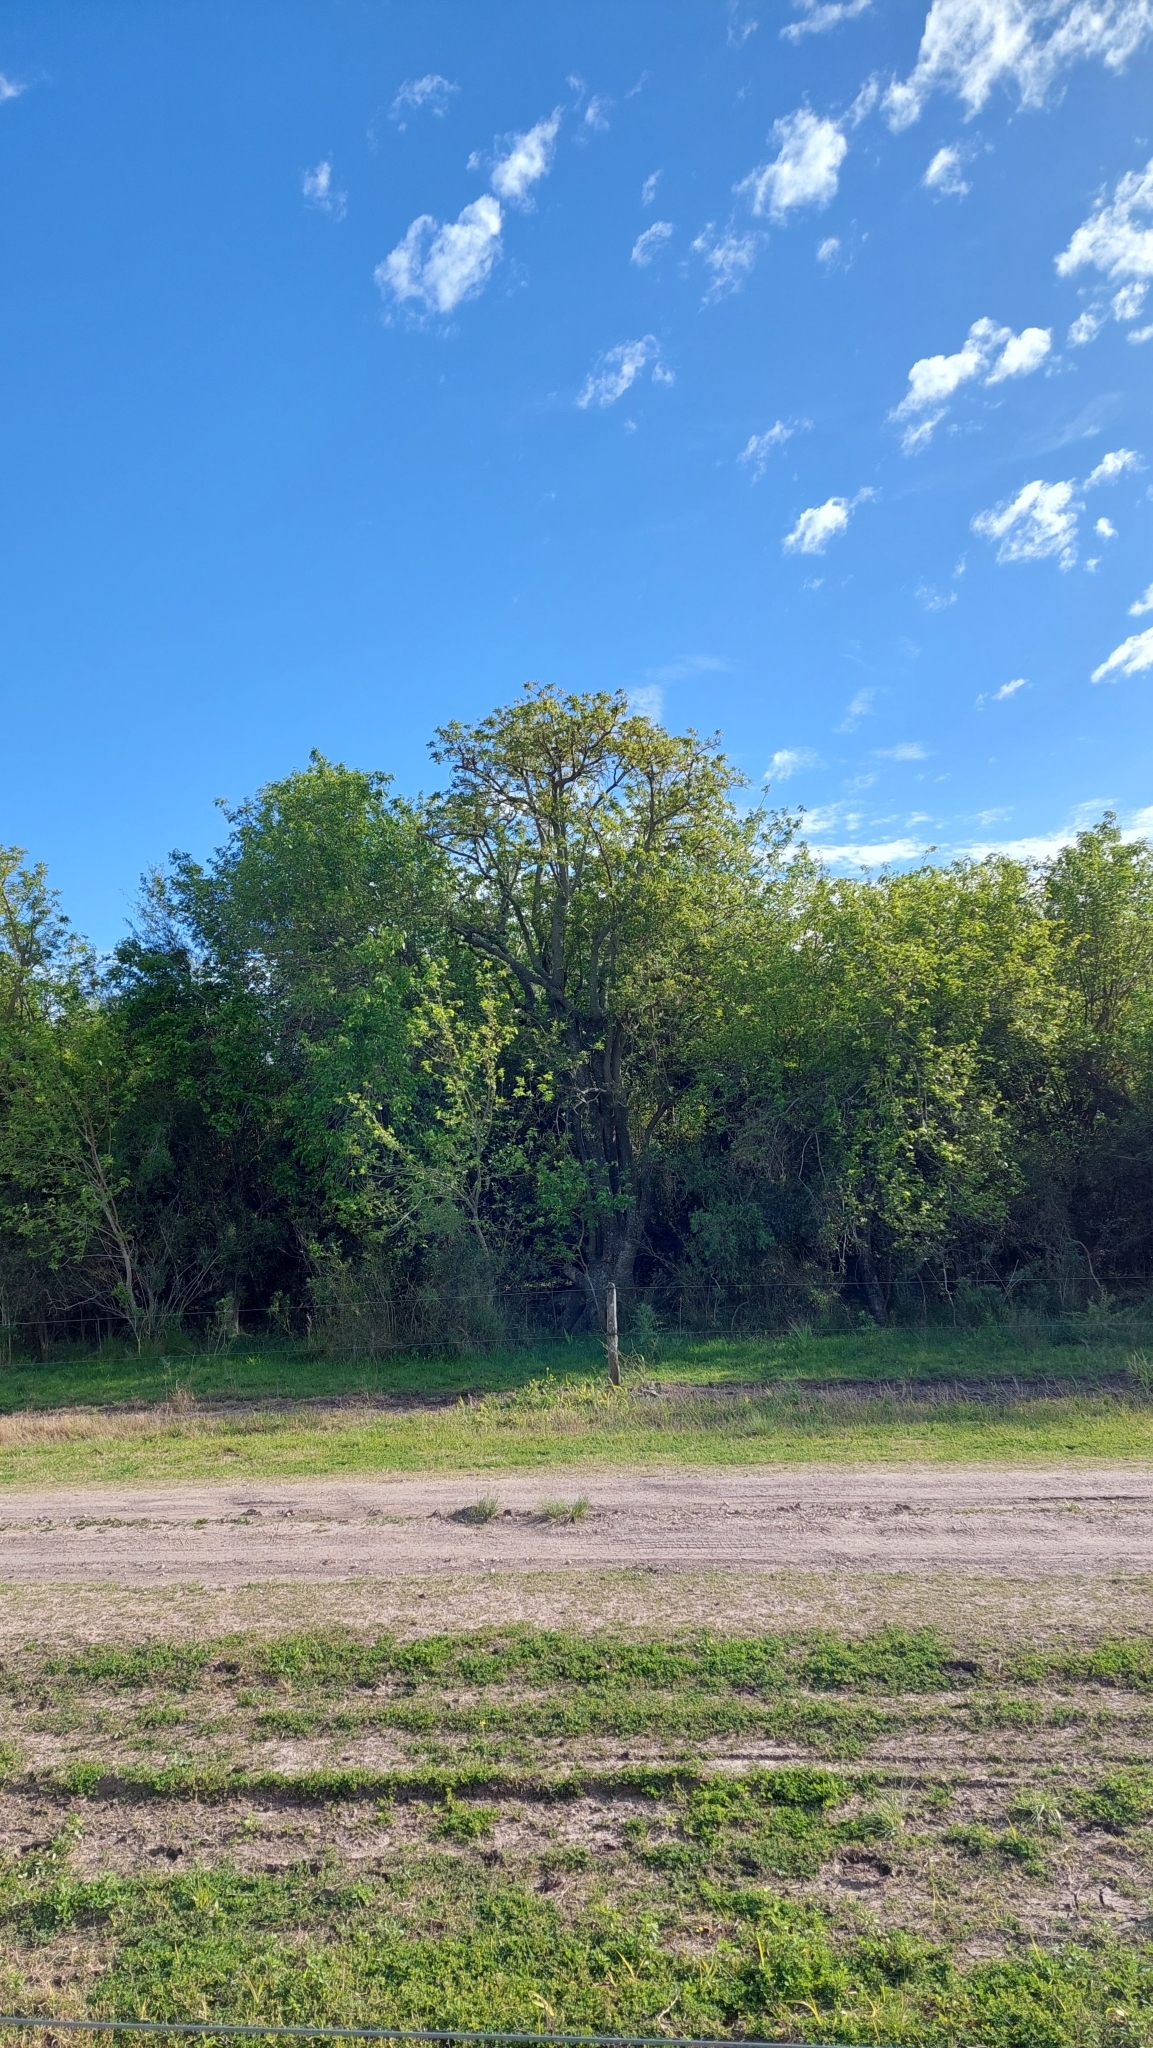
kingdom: Plantae
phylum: Tracheophyta
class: Magnoliopsida
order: Caryophyllales
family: Phytolaccaceae
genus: Phytolacca
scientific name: Phytolacca dioica
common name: Pokeweed
